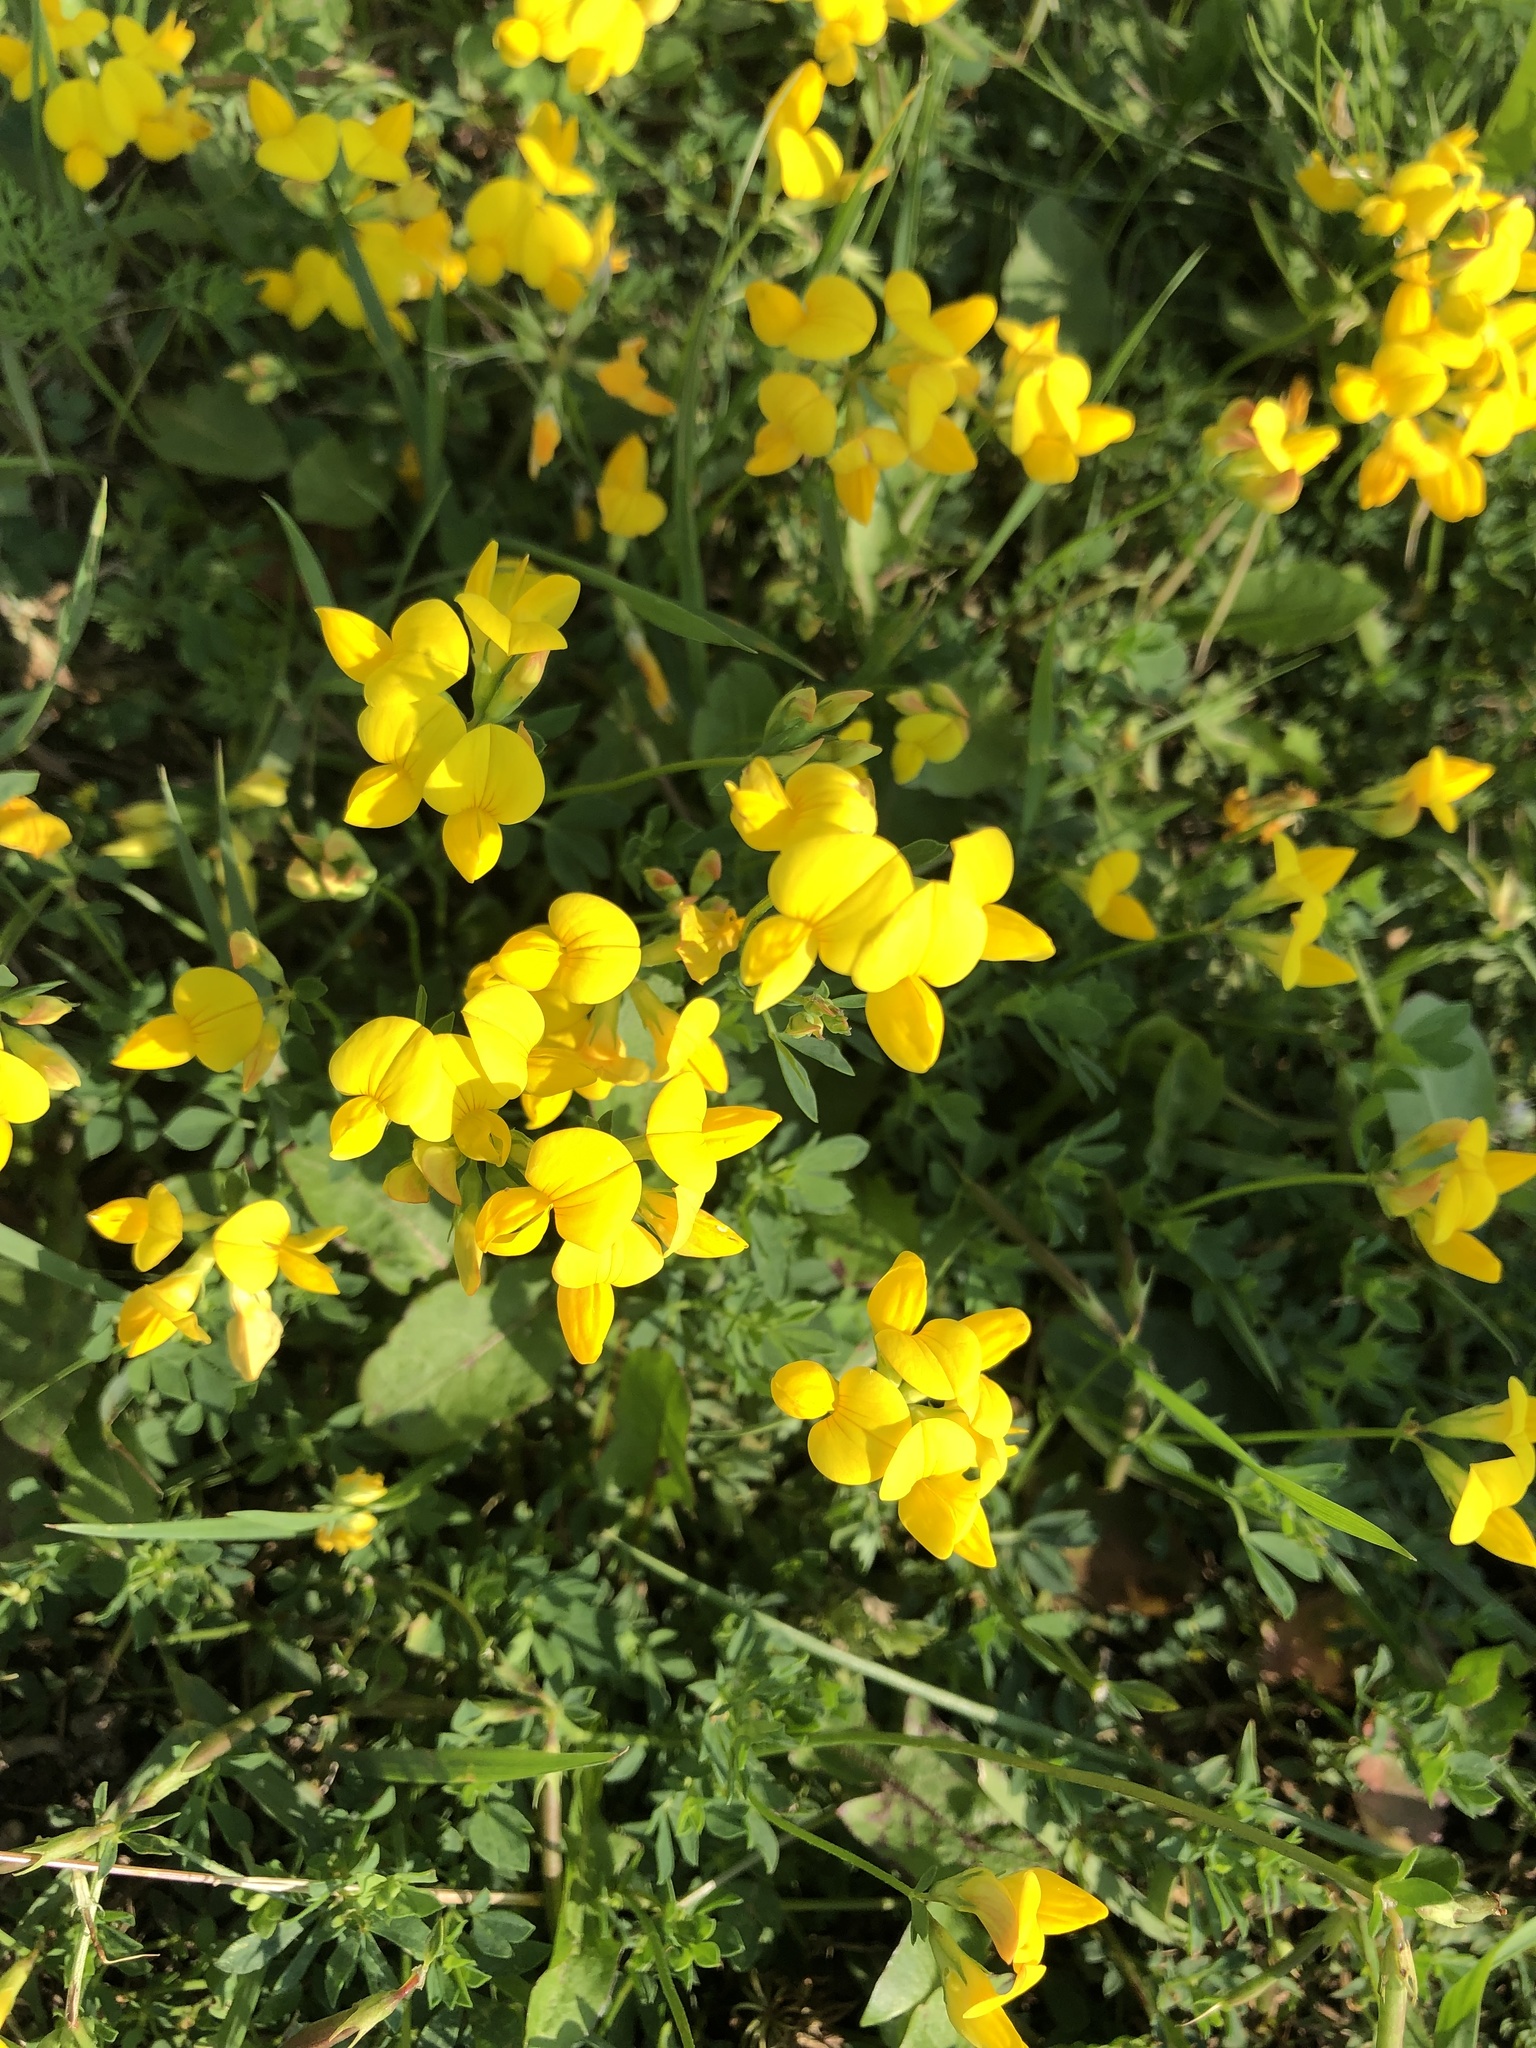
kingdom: Plantae
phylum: Tracheophyta
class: Magnoliopsida
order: Fabales
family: Fabaceae
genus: Lotus
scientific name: Lotus corniculatus
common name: Common bird's-foot-trefoil
